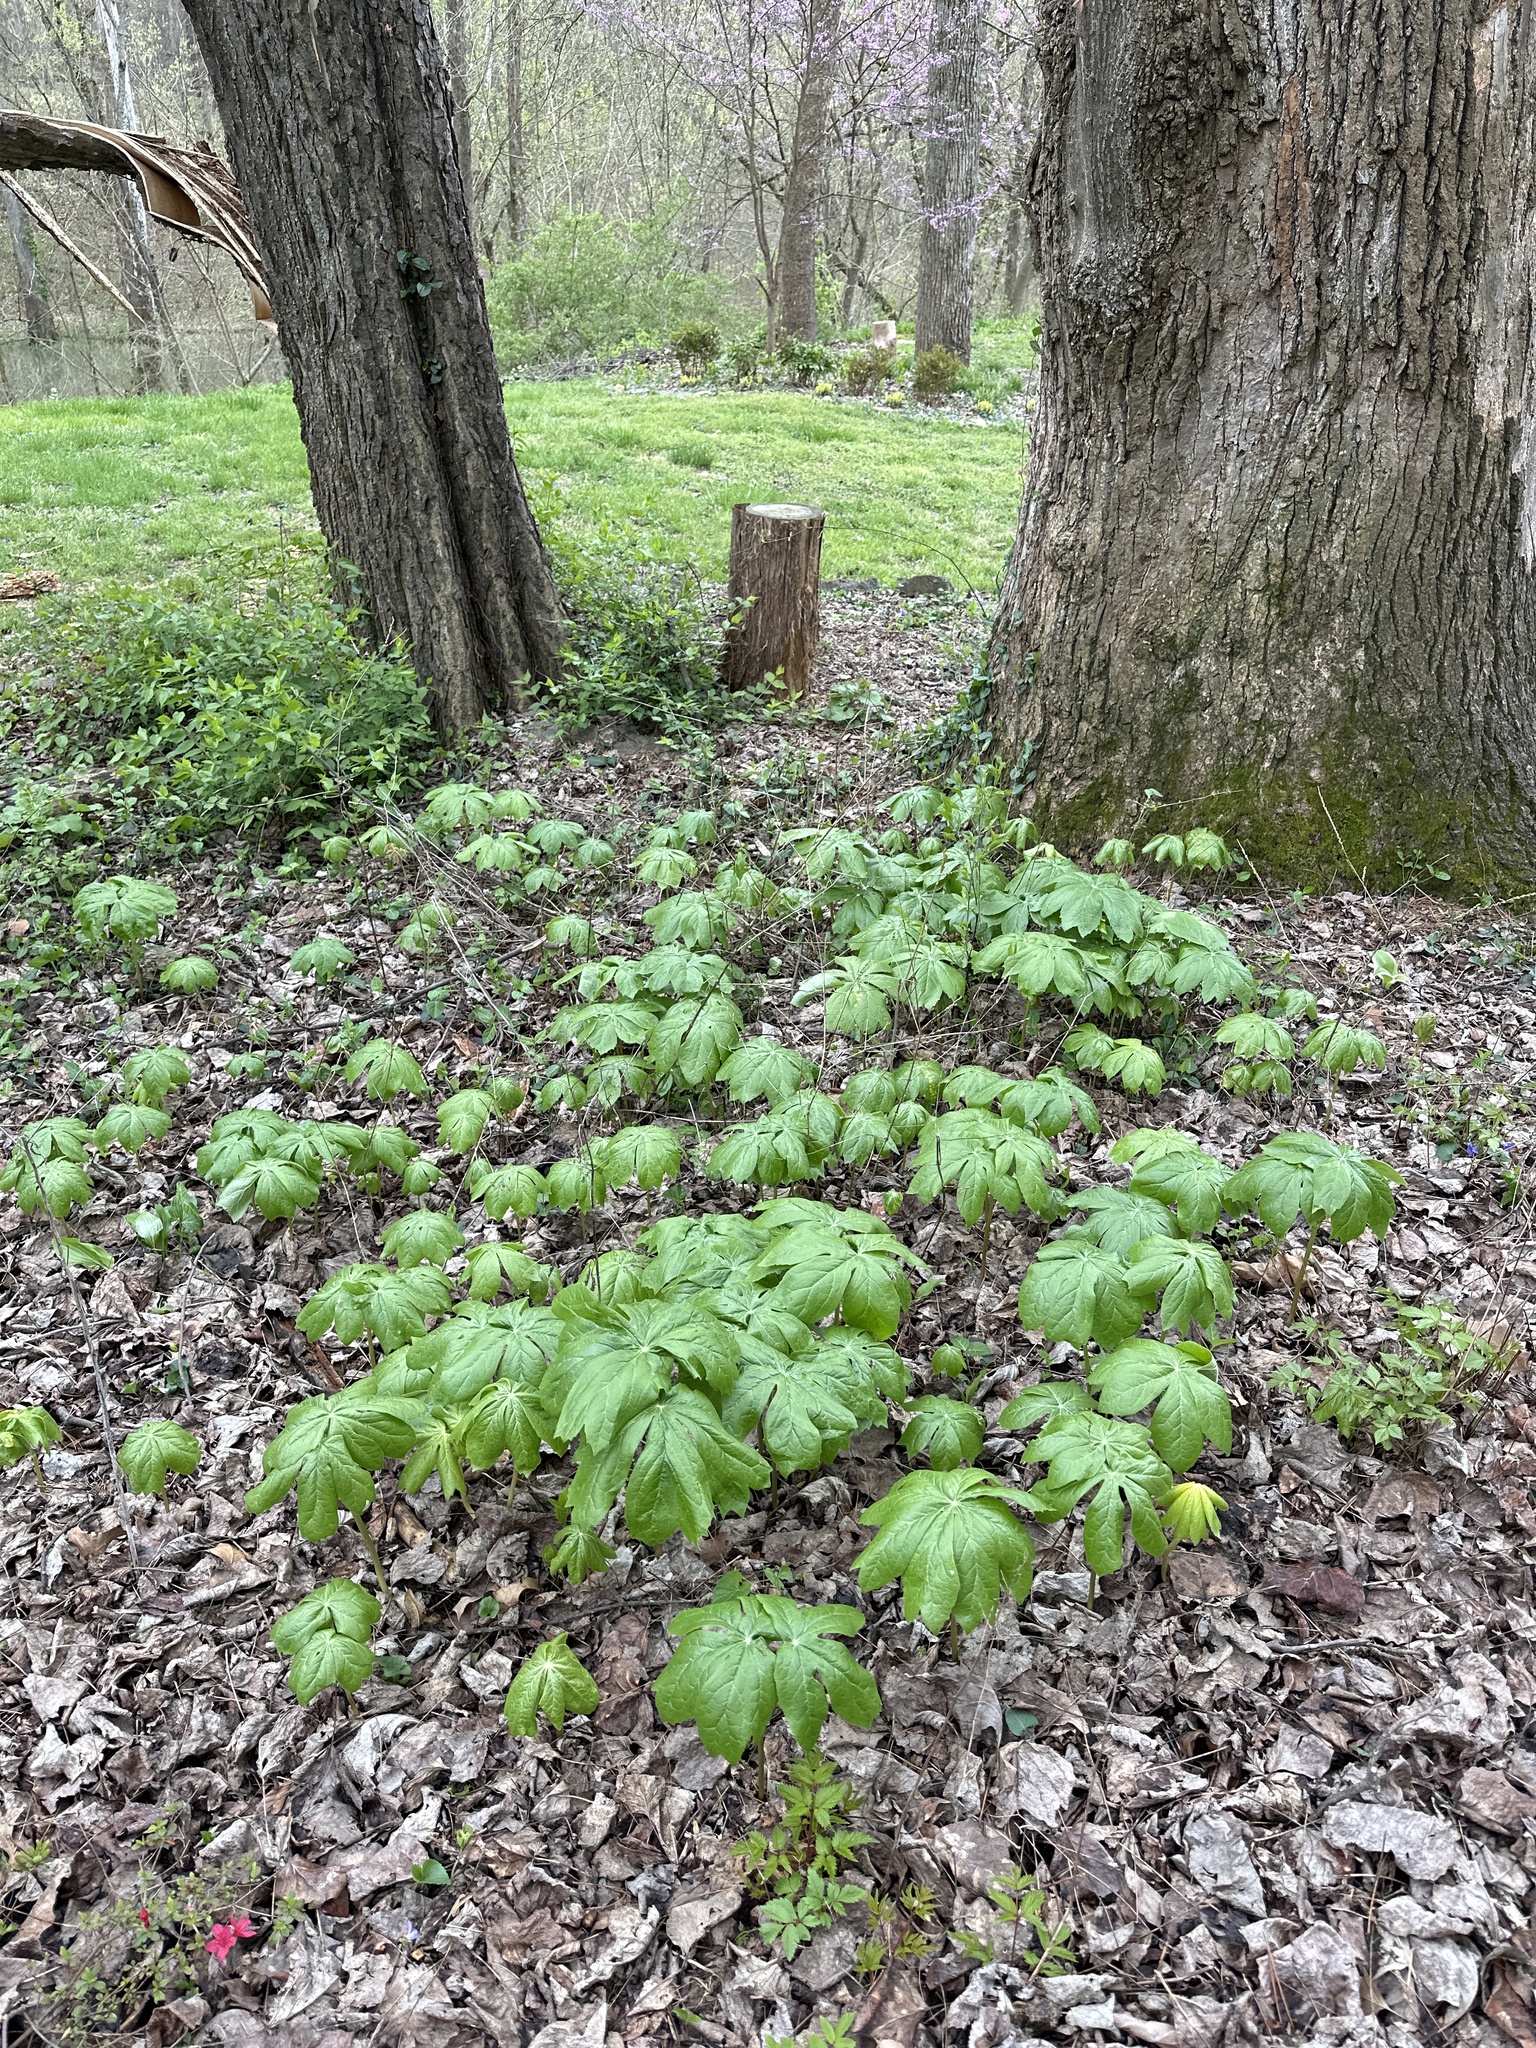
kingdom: Plantae
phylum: Tracheophyta
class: Magnoliopsida
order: Ranunculales
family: Berberidaceae
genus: Podophyllum
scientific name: Podophyllum peltatum
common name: Wild mandrake
